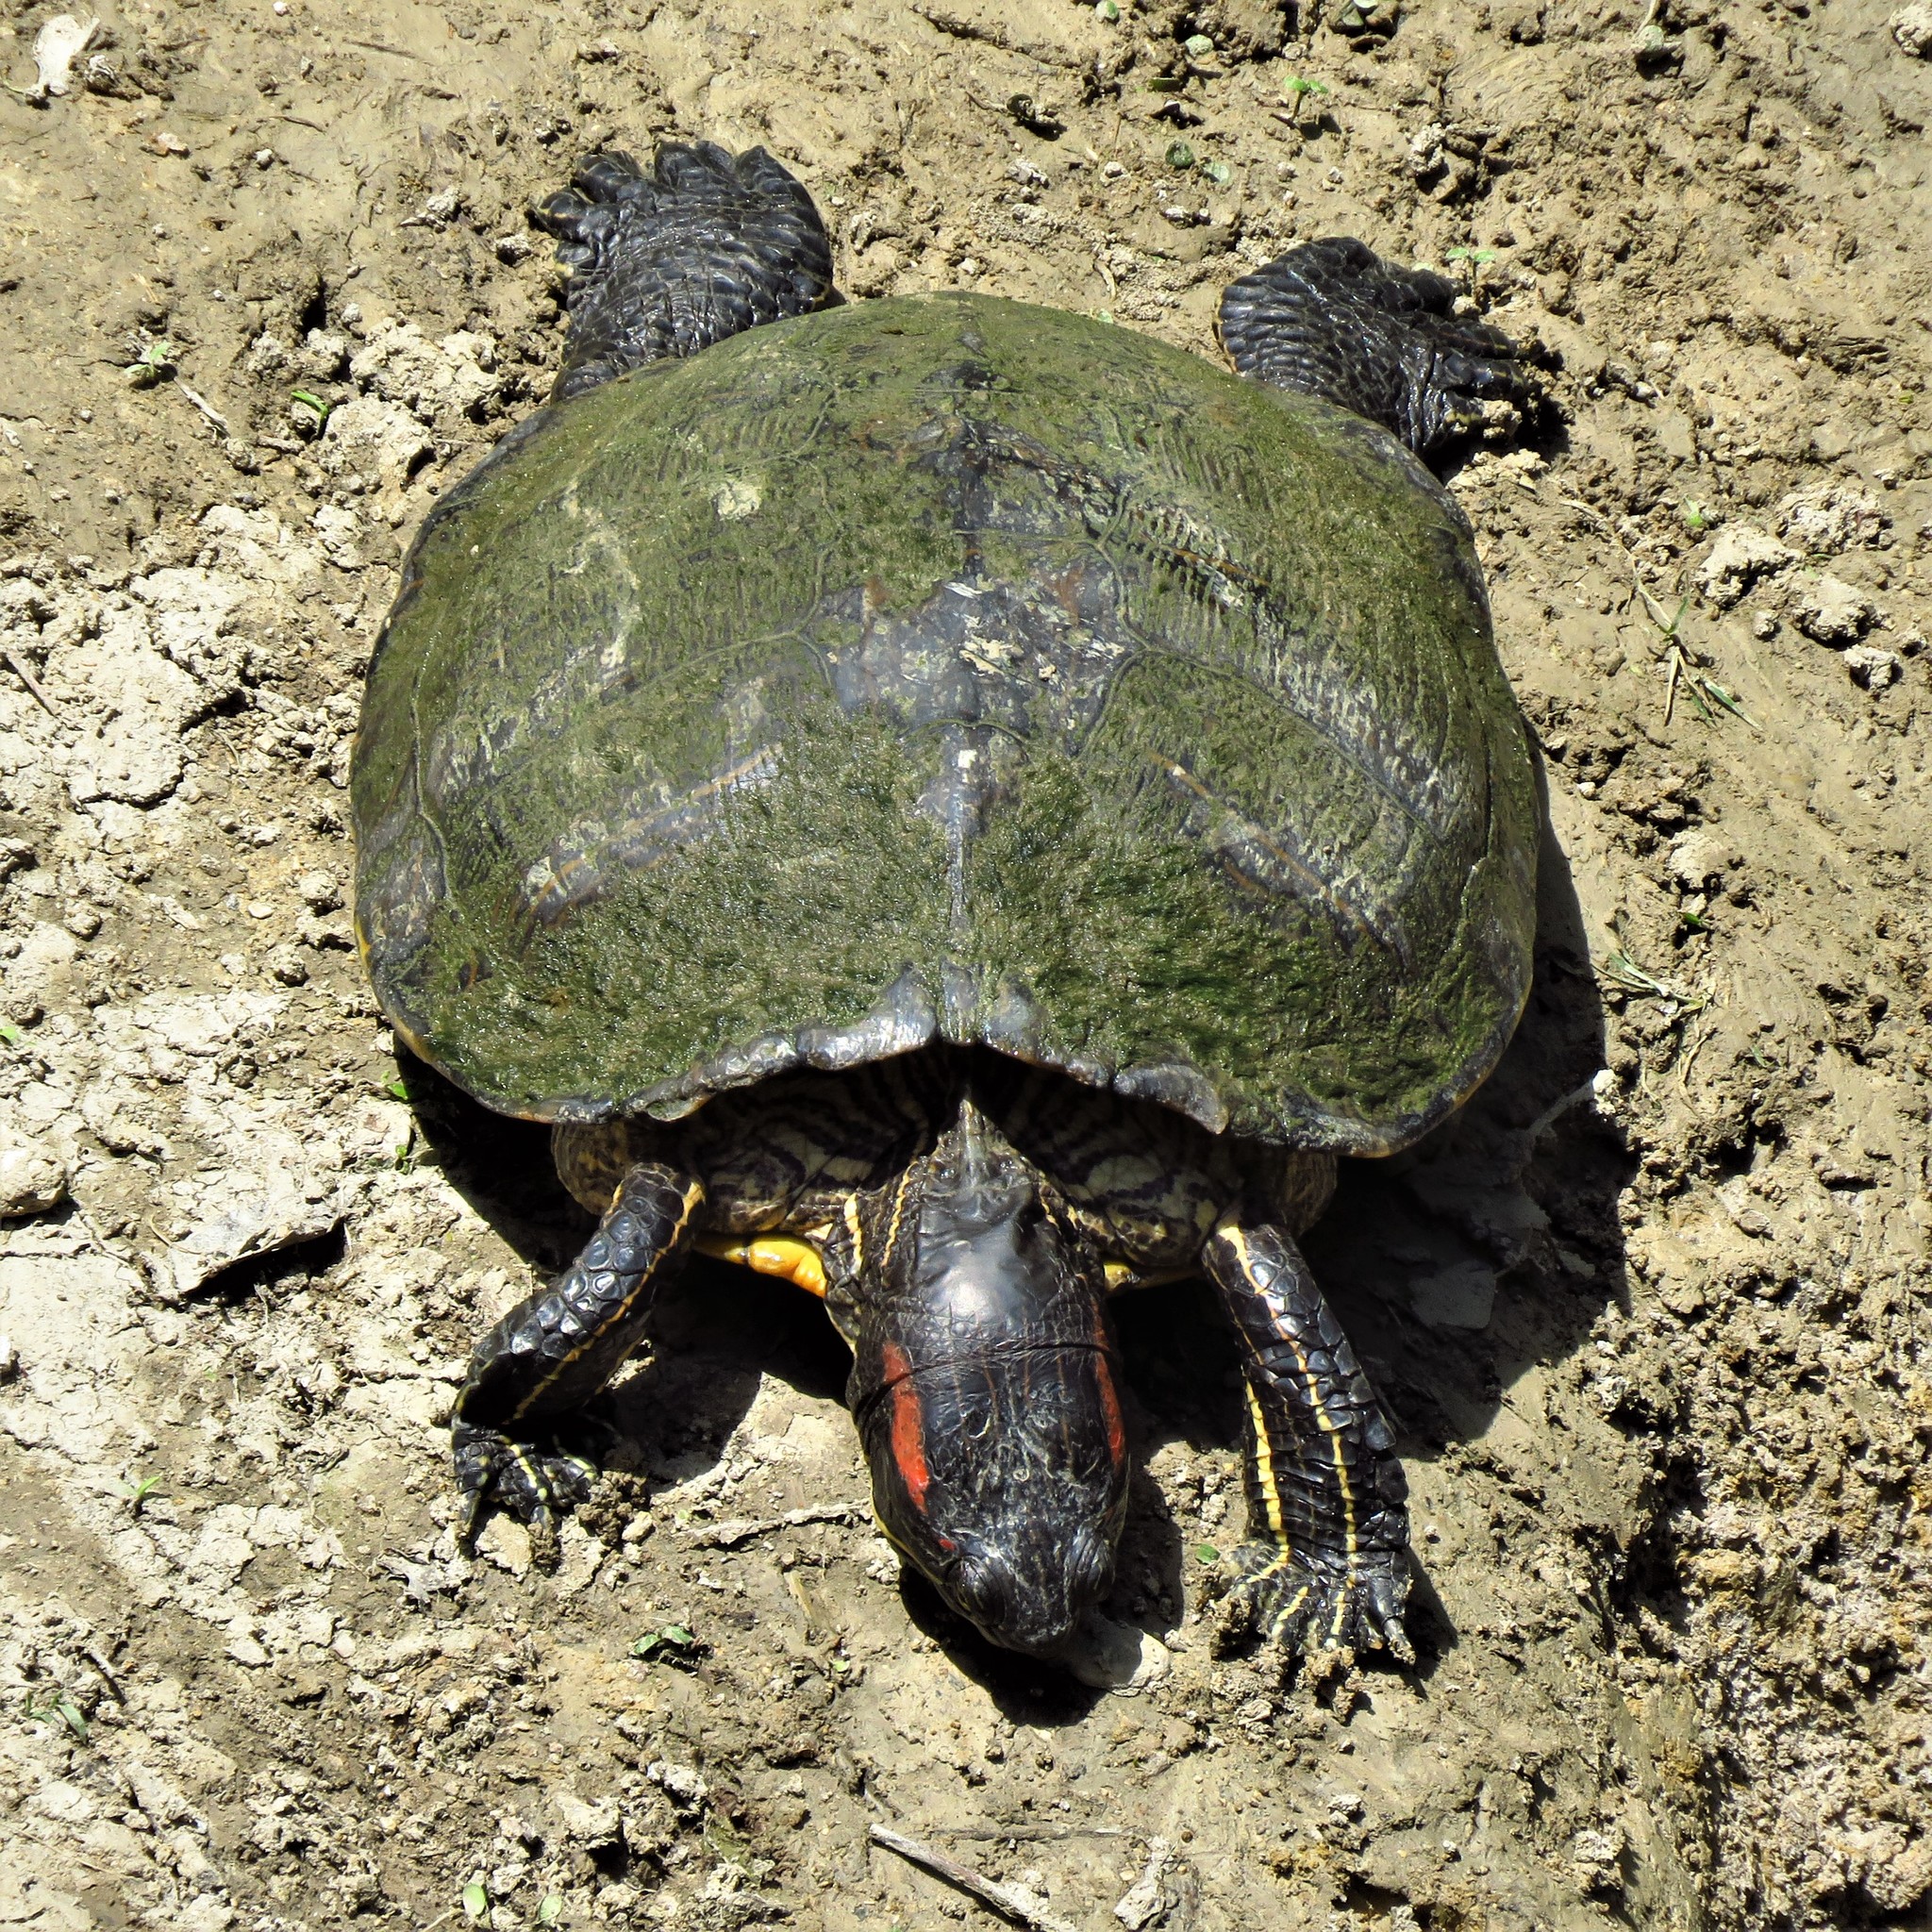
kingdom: Animalia
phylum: Chordata
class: Testudines
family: Emydidae
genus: Pseudemys
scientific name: Pseudemys concinna
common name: Eastern river cooter
